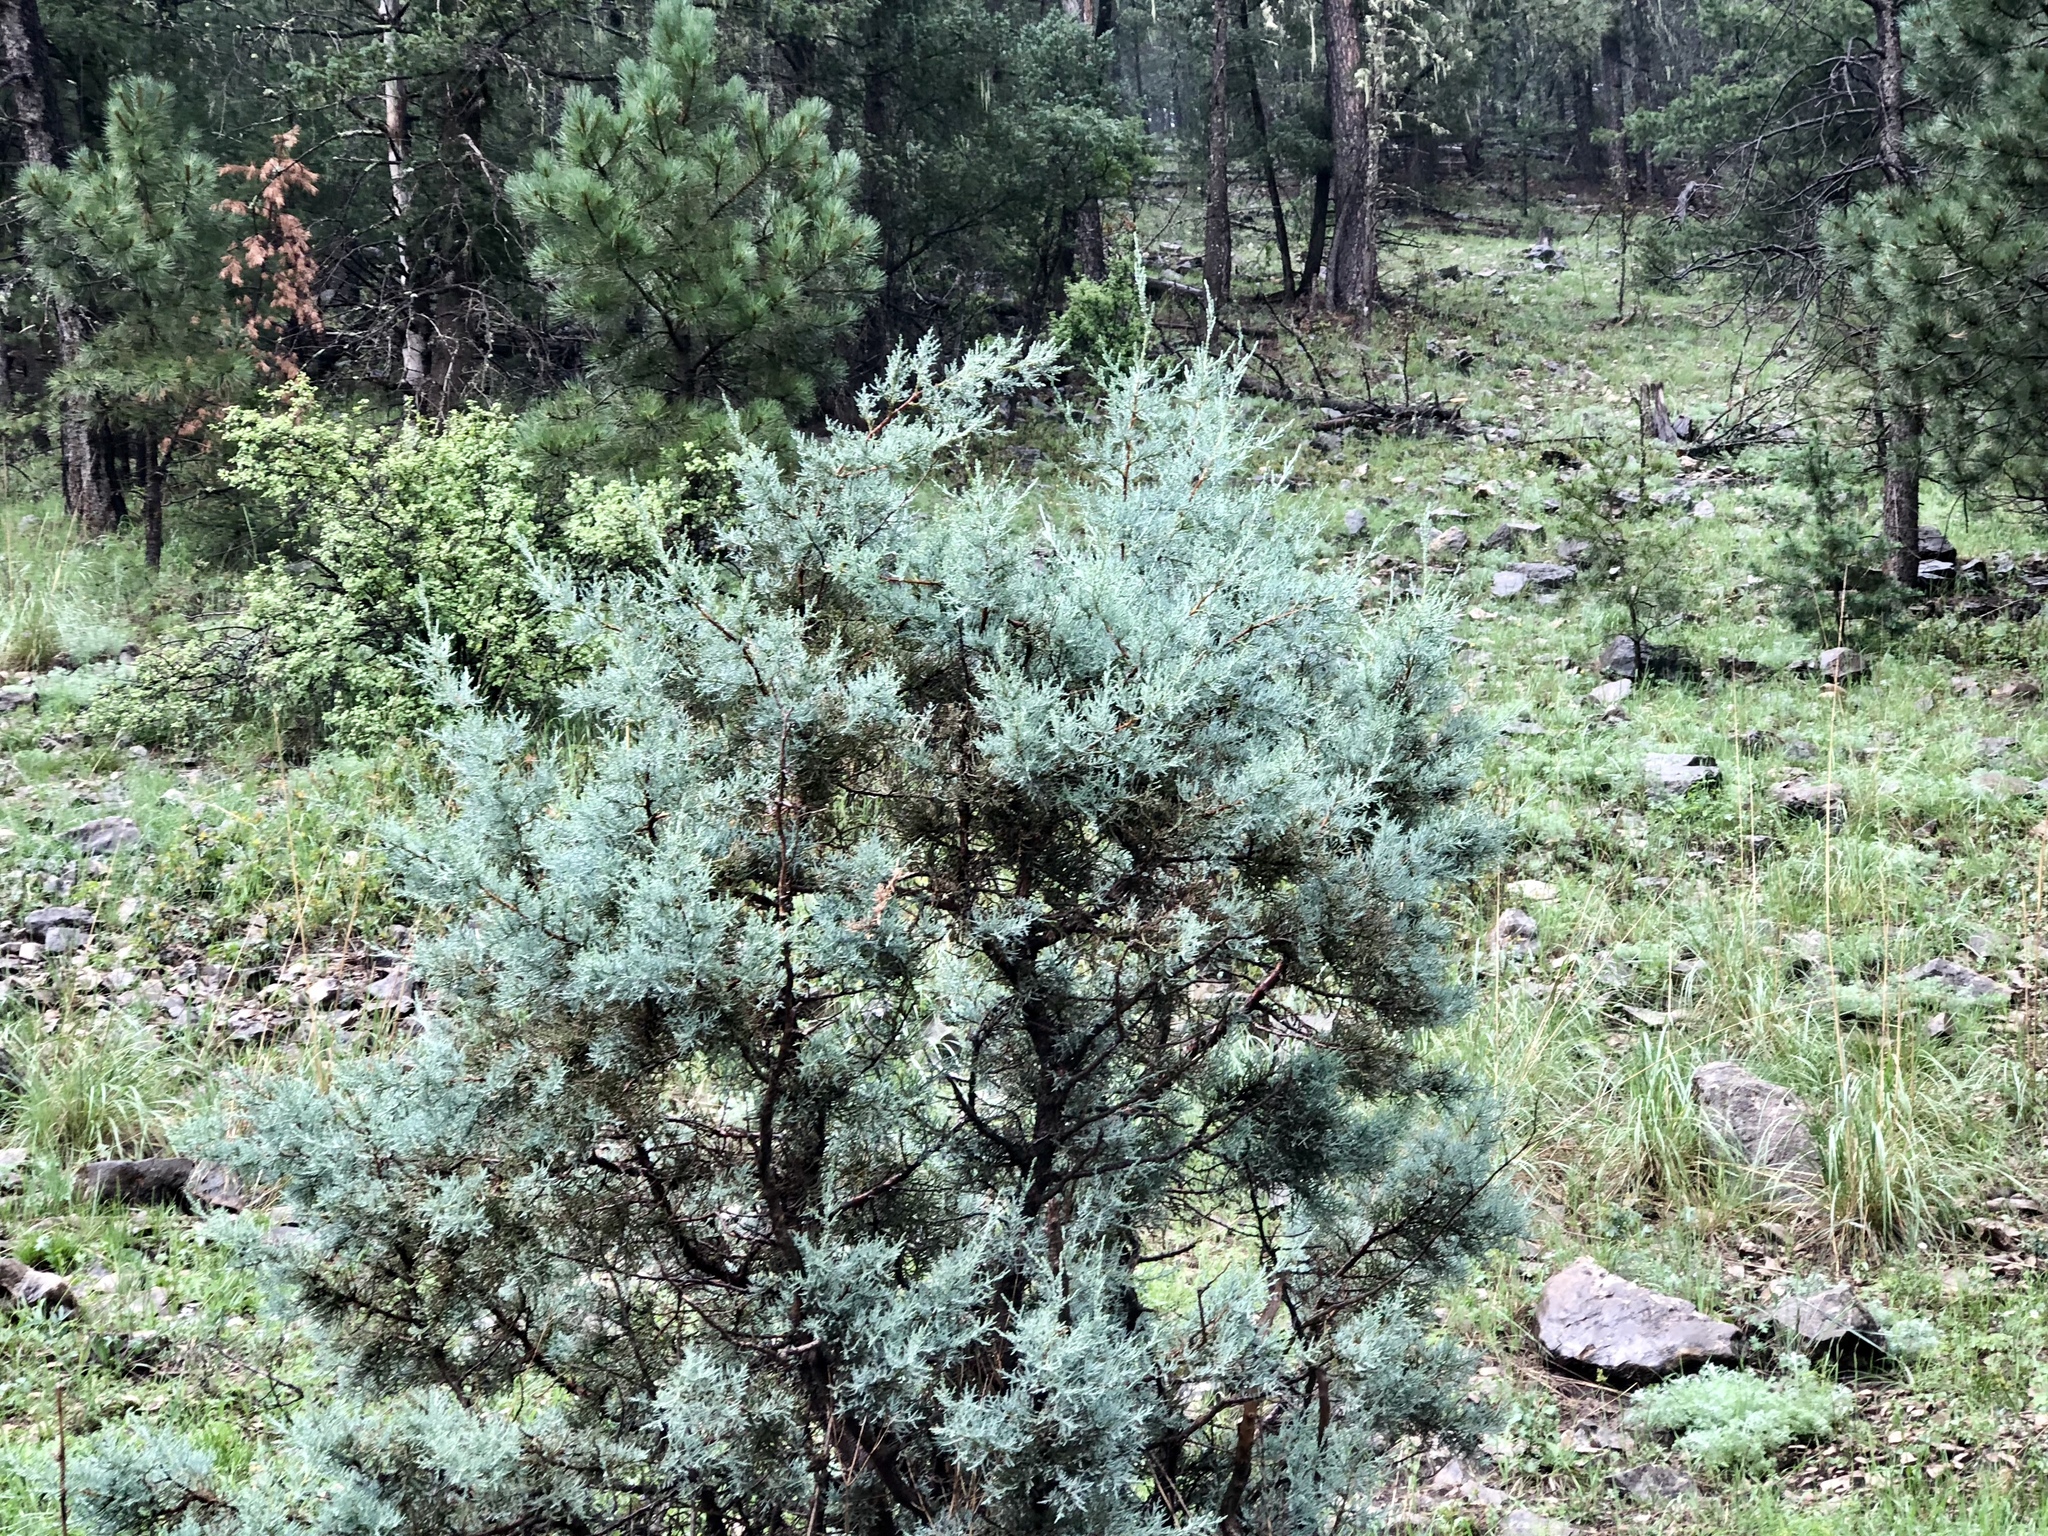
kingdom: Plantae
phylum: Tracheophyta
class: Pinopsida
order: Pinales
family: Cupressaceae
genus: Juniperus
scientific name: Juniperus deppeana
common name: Alligator juniper
